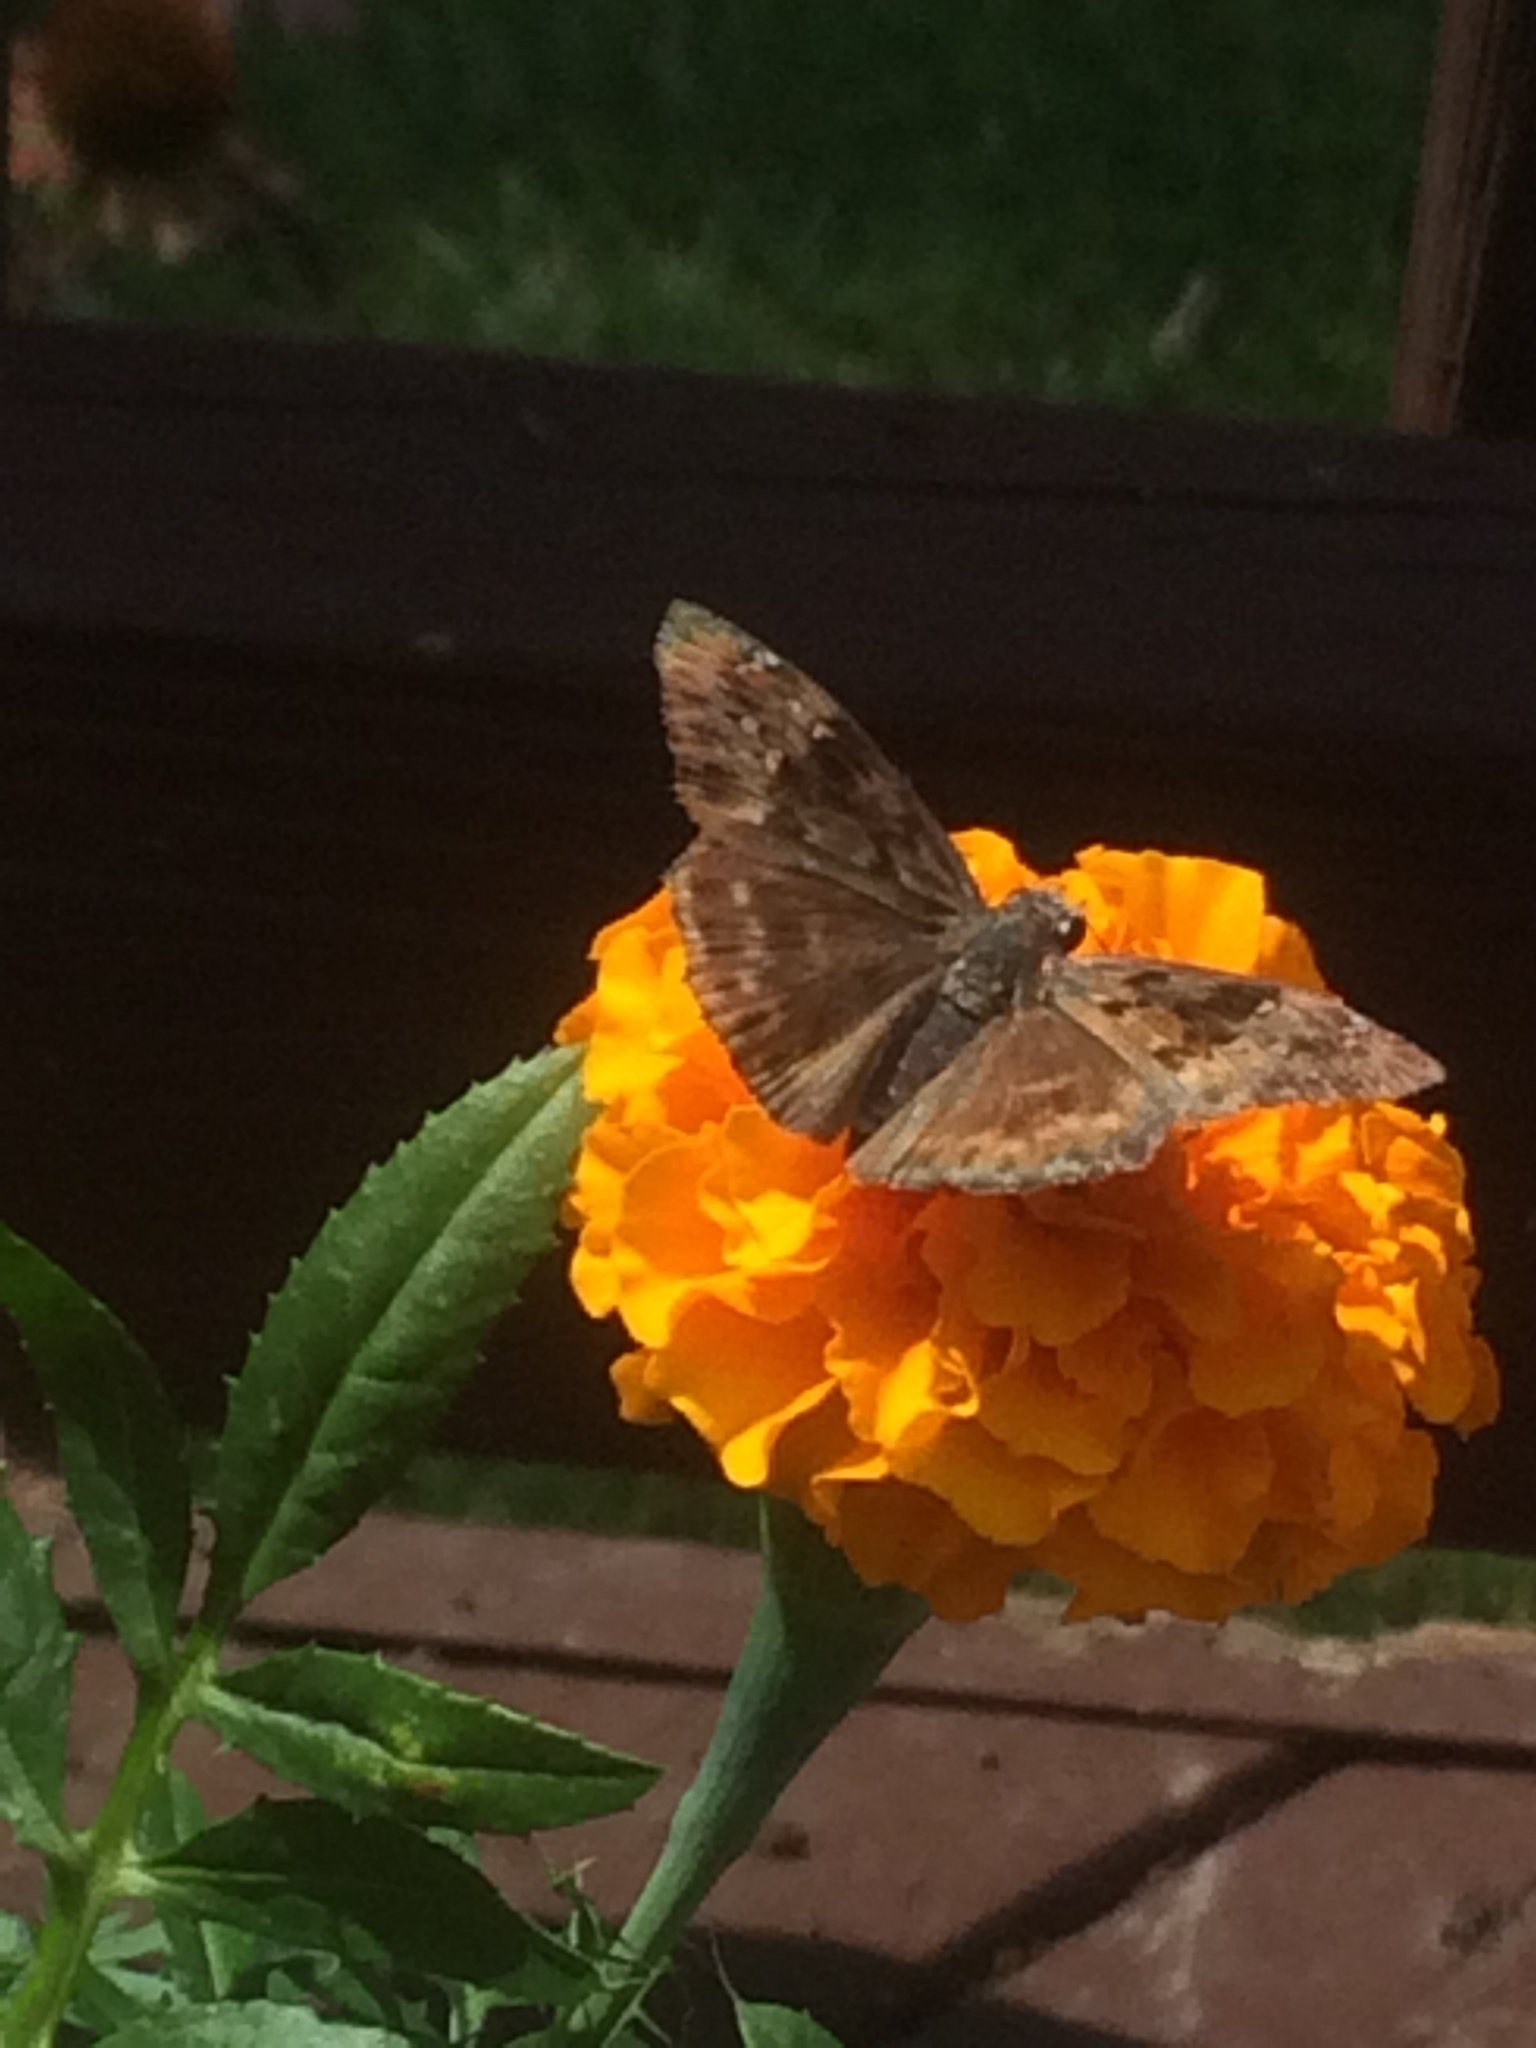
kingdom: Animalia
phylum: Arthropoda
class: Insecta
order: Lepidoptera
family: Hesperiidae
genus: Erynnis
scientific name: Erynnis horatius
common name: Horace's duskywing
